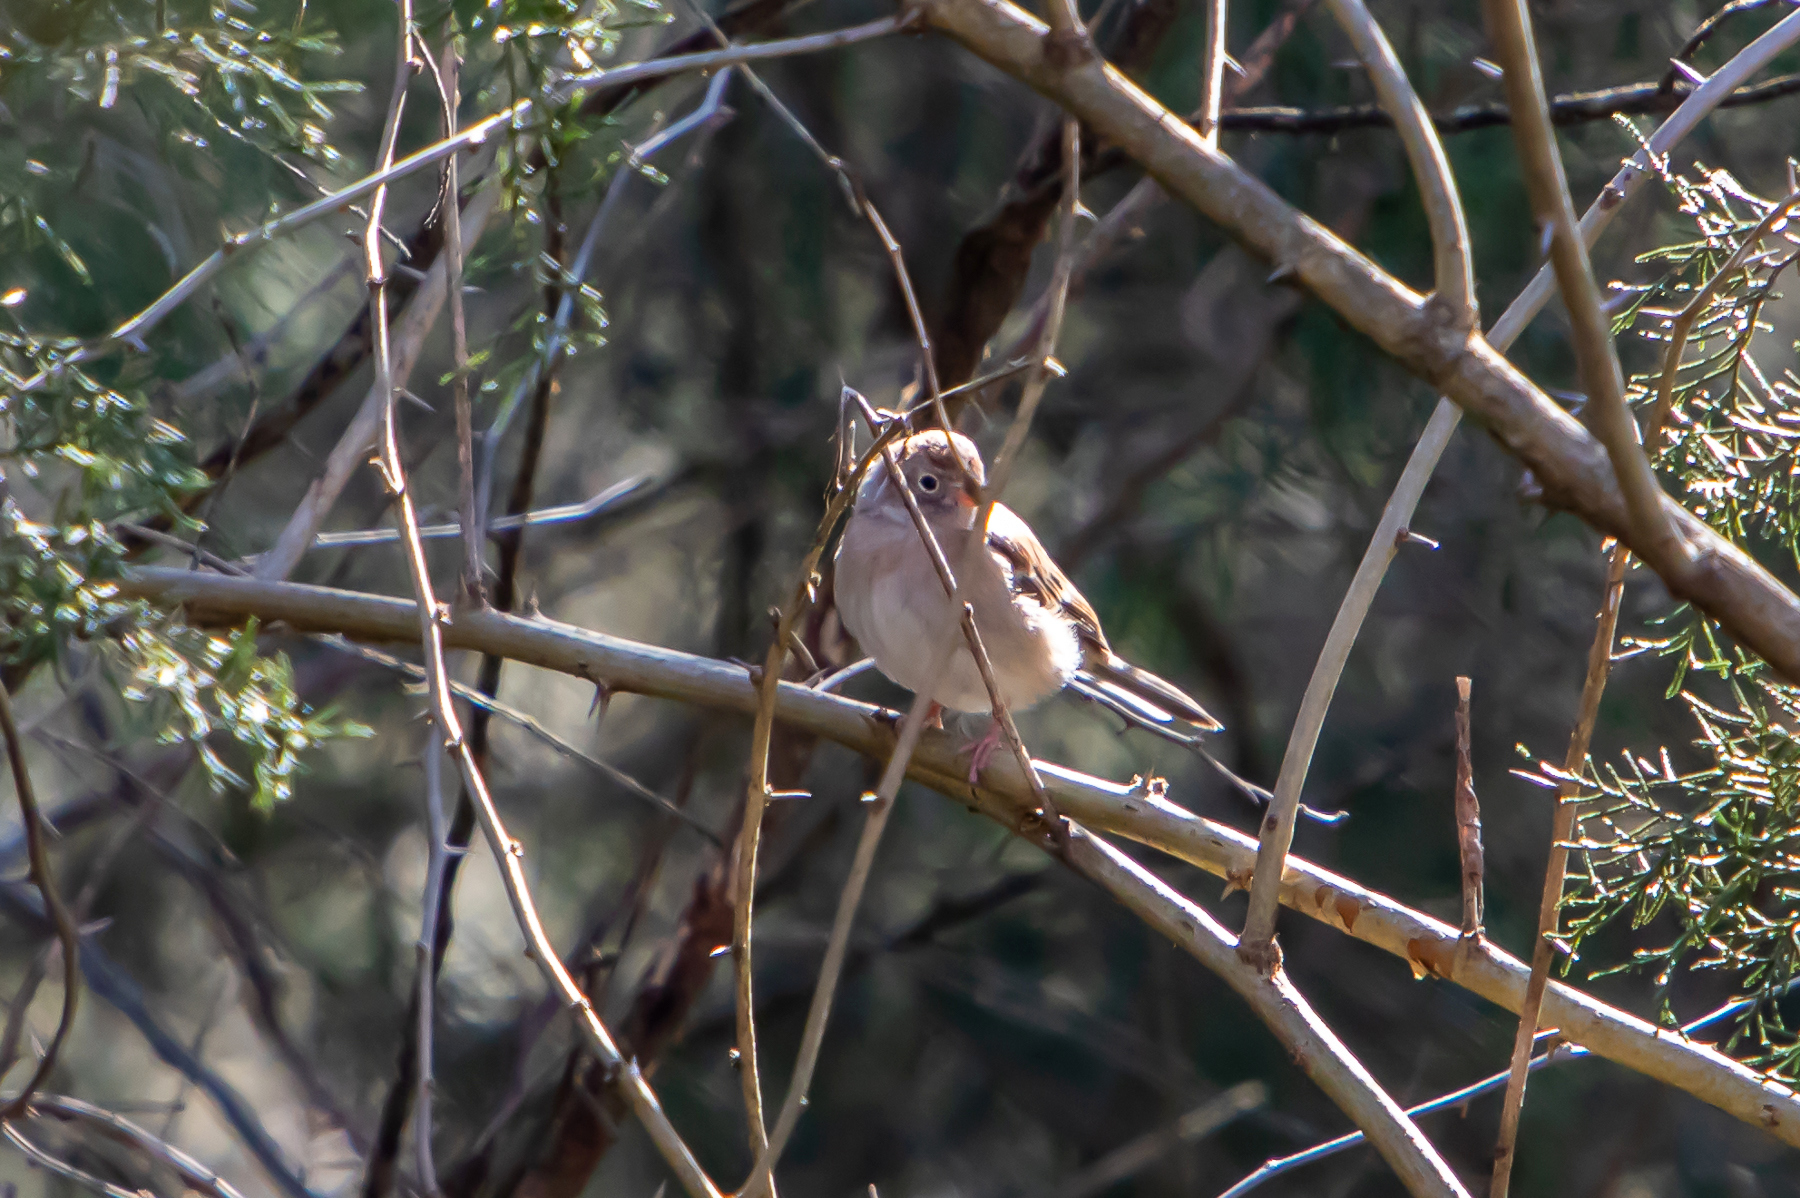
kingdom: Animalia
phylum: Chordata
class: Aves
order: Passeriformes
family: Passerellidae
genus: Spizella
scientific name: Spizella pusilla
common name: Field sparrow
